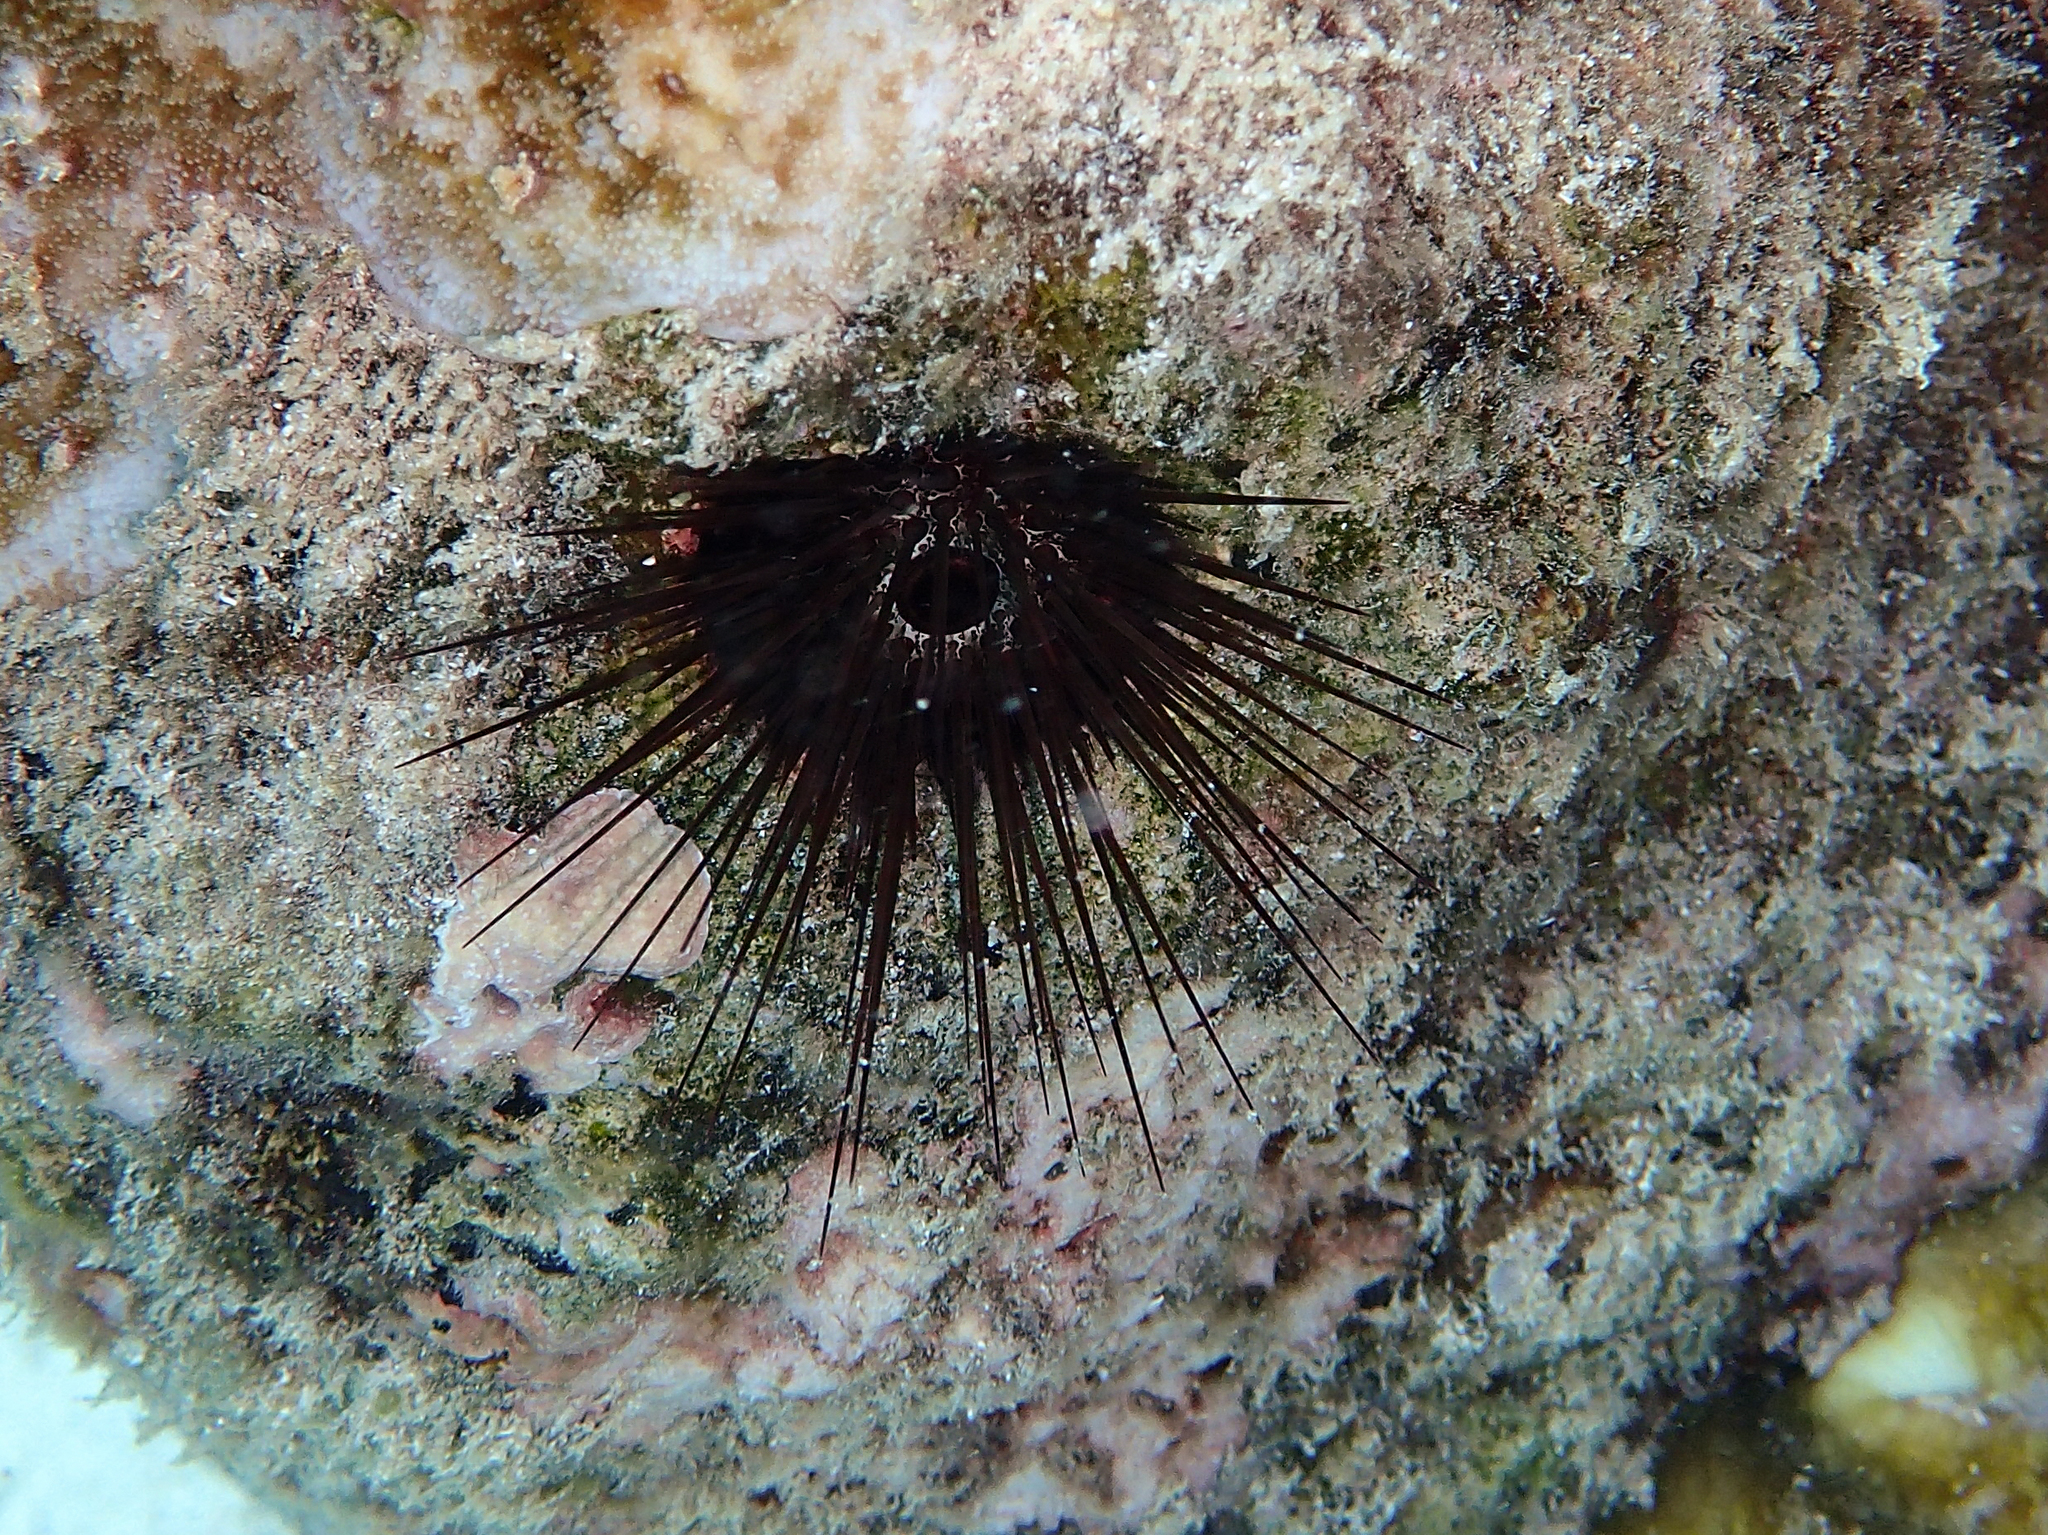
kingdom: Animalia
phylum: Echinodermata
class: Echinoidea
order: Camarodonta
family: Echinometridae
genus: Echinostrephus
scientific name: Echinostrephus aciculatus
